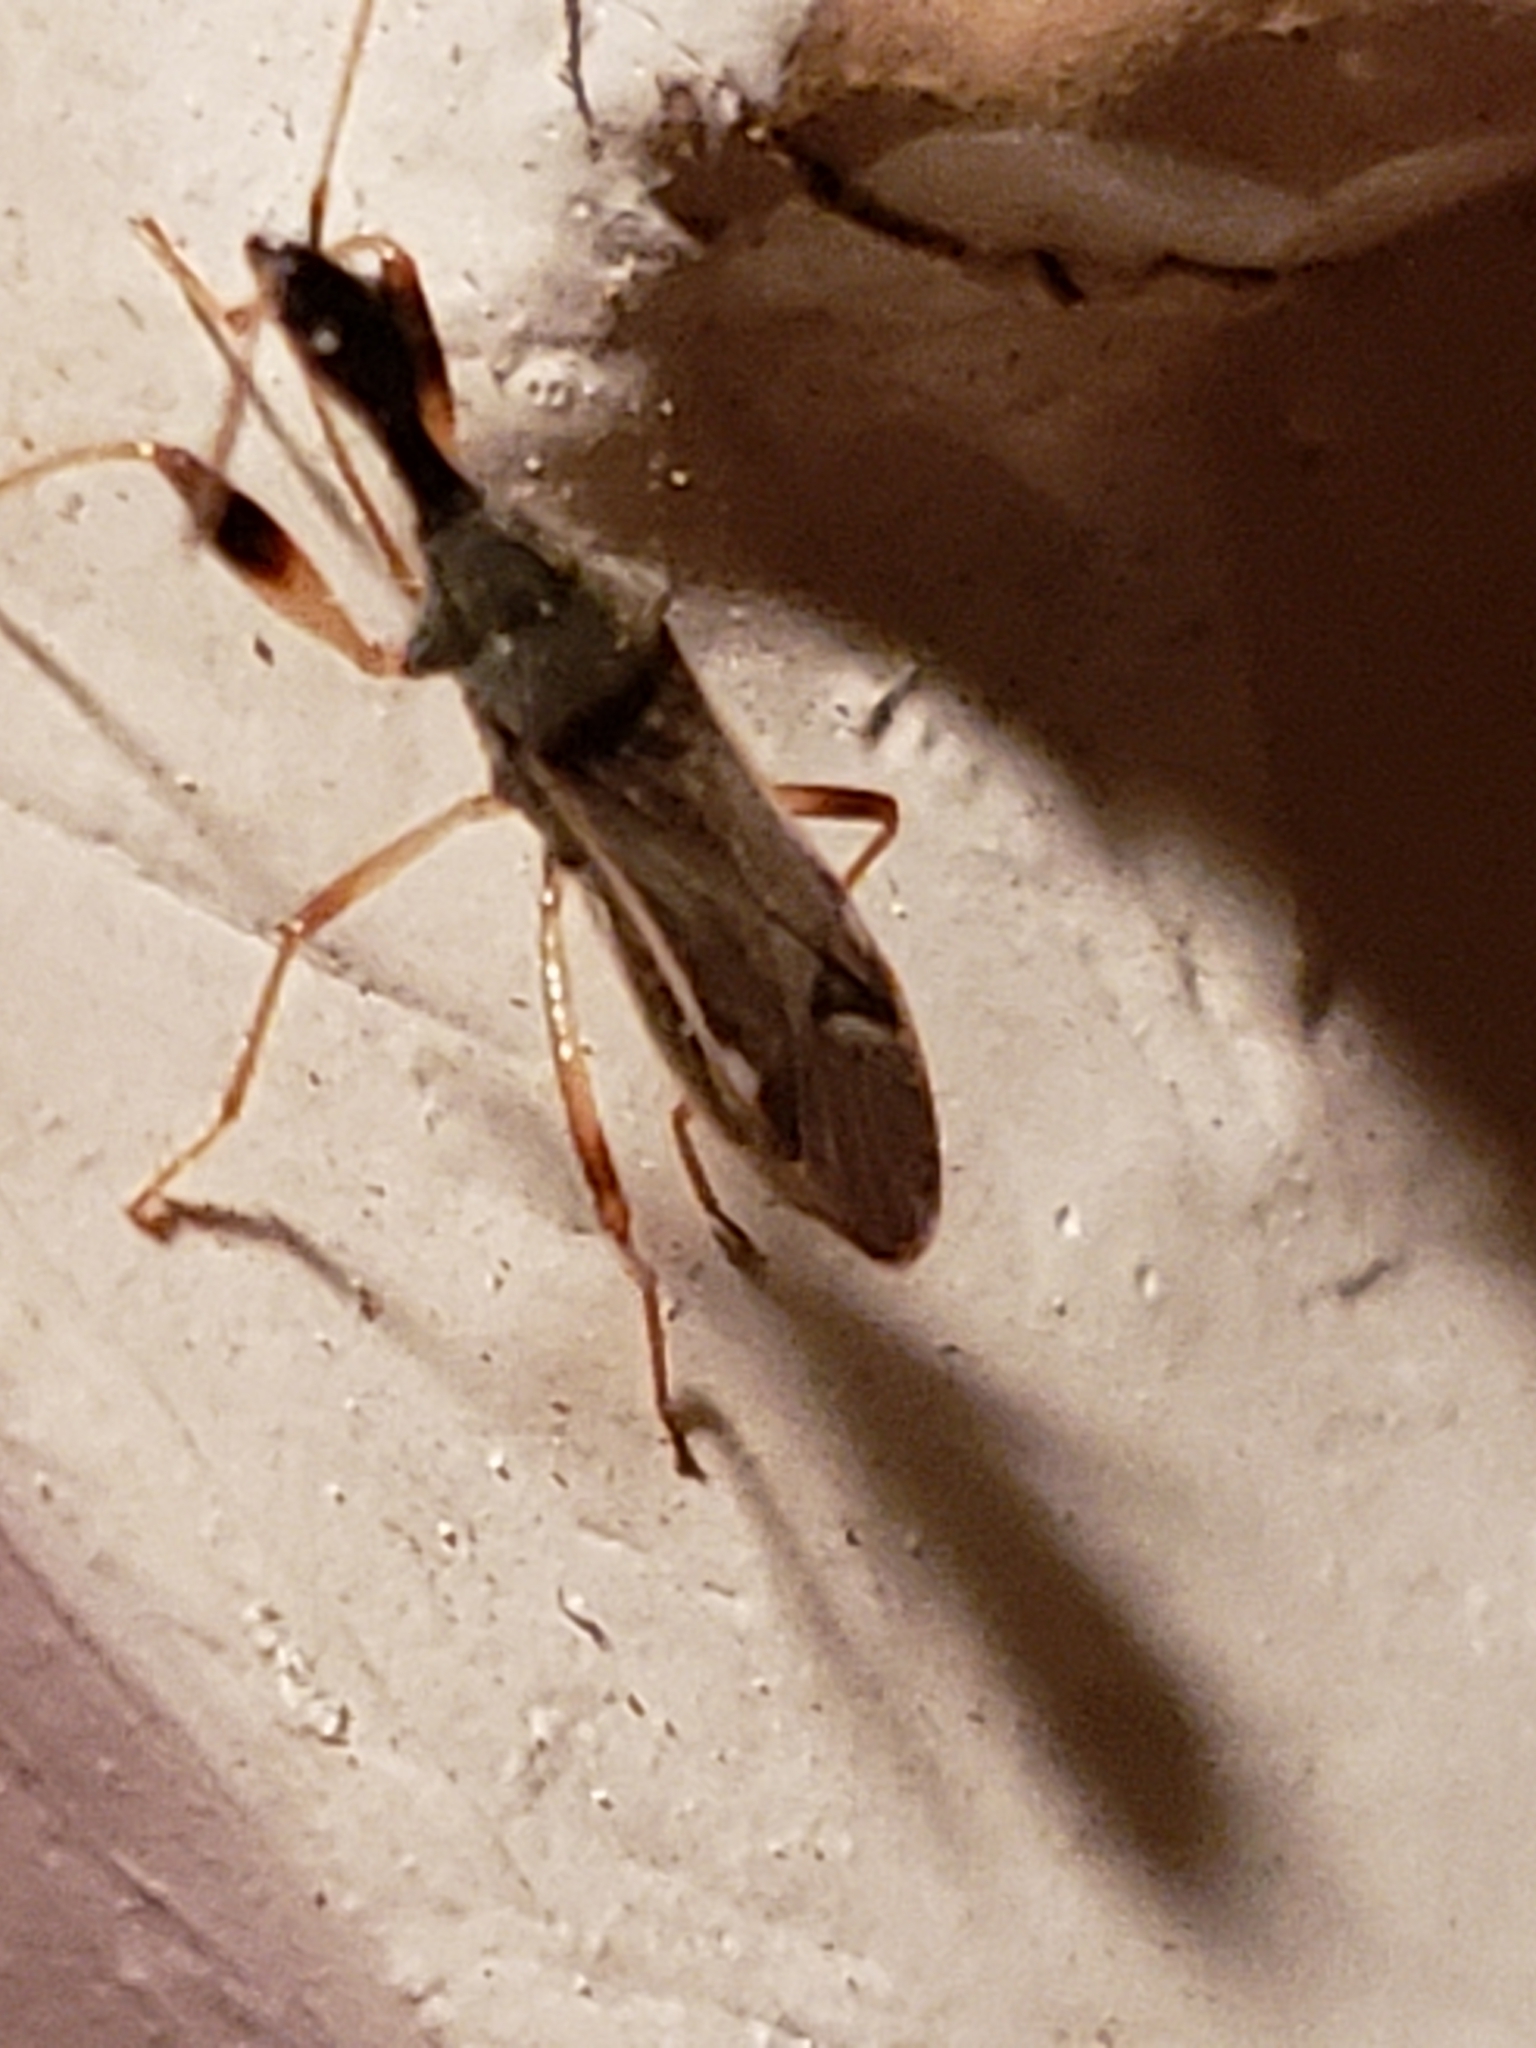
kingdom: Animalia
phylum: Arthropoda
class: Insecta
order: Hemiptera
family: Rhyparochromidae
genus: Myodocha
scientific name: Myodocha serripes
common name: Long-necked seed bug
